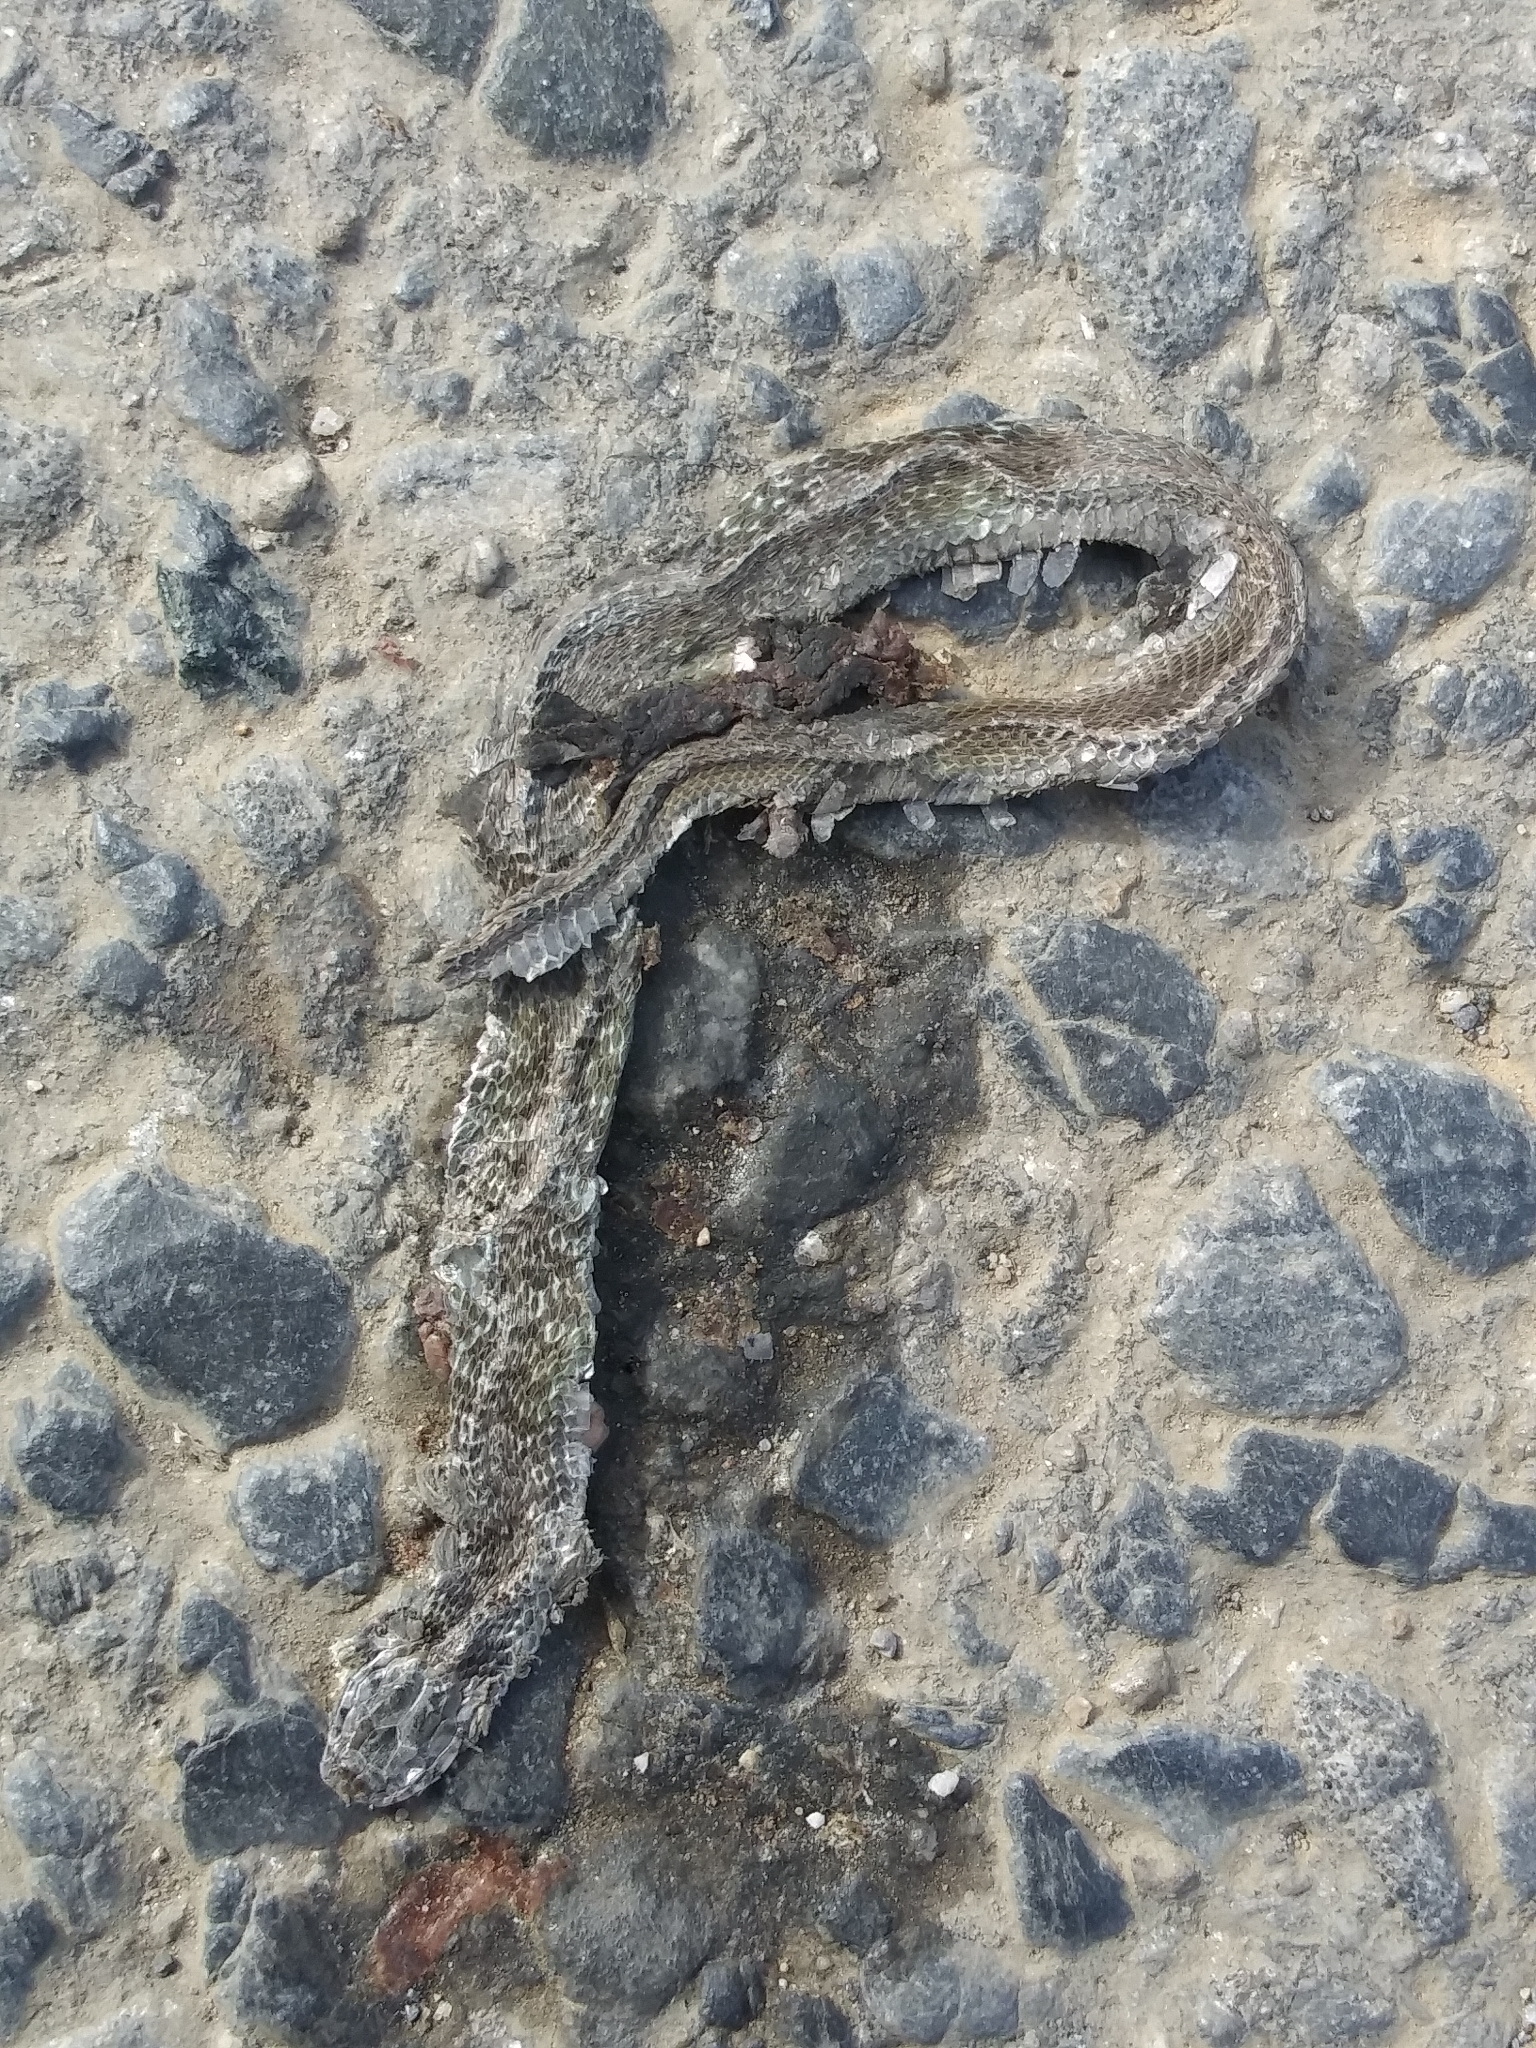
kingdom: Animalia
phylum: Chordata
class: Squamata
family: Colubridae
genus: Storeria
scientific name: Storeria dekayi
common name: (dekay’s) brown snake
